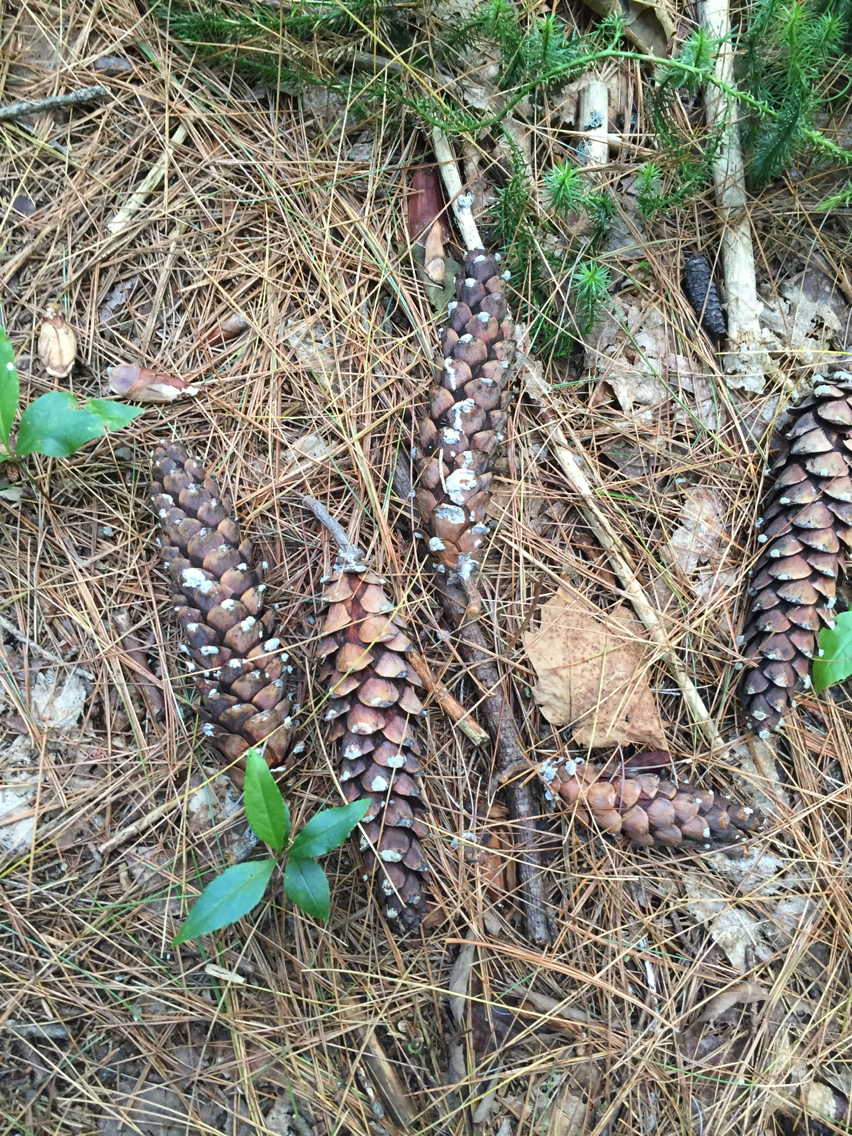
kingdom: Plantae
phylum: Tracheophyta
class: Pinopsida
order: Pinales
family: Pinaceae
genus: Pinus
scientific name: Pinus strobus
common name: Weymouth pine
